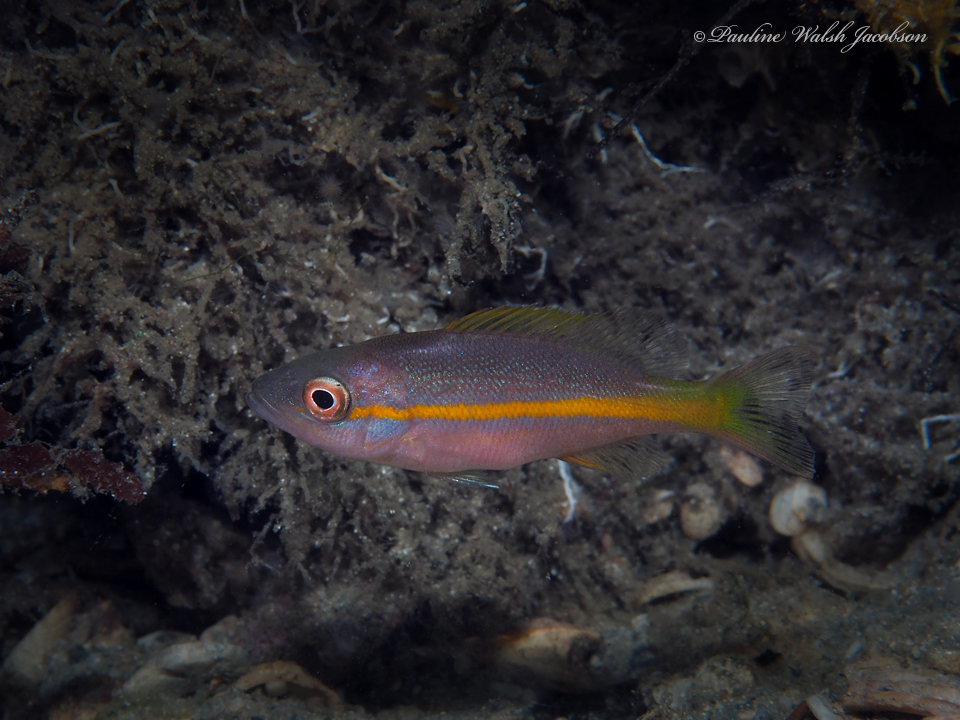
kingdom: Animalia
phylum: Chordata
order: Perciformes
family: Lutjanidae
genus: Ocyurus
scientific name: Ocyurus chrysurus
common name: Yellowtail snapper
